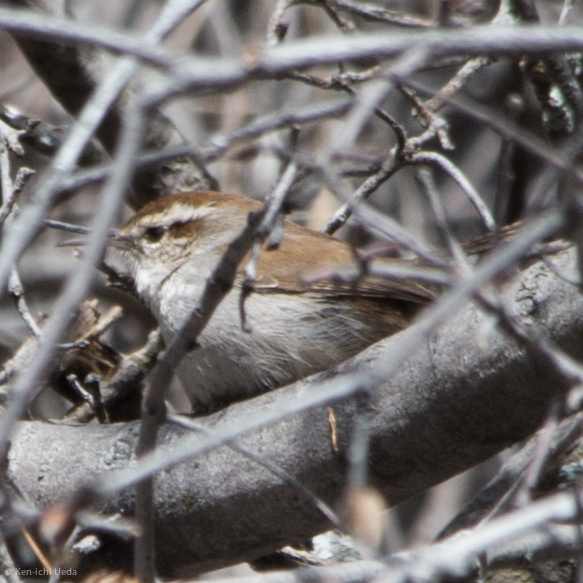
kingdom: Animalia
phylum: Chordata
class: Aves
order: Passeriformes
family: Troglodytidae
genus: Thryomanes
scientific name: Thryomanes bewickii
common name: Bewick's wren
